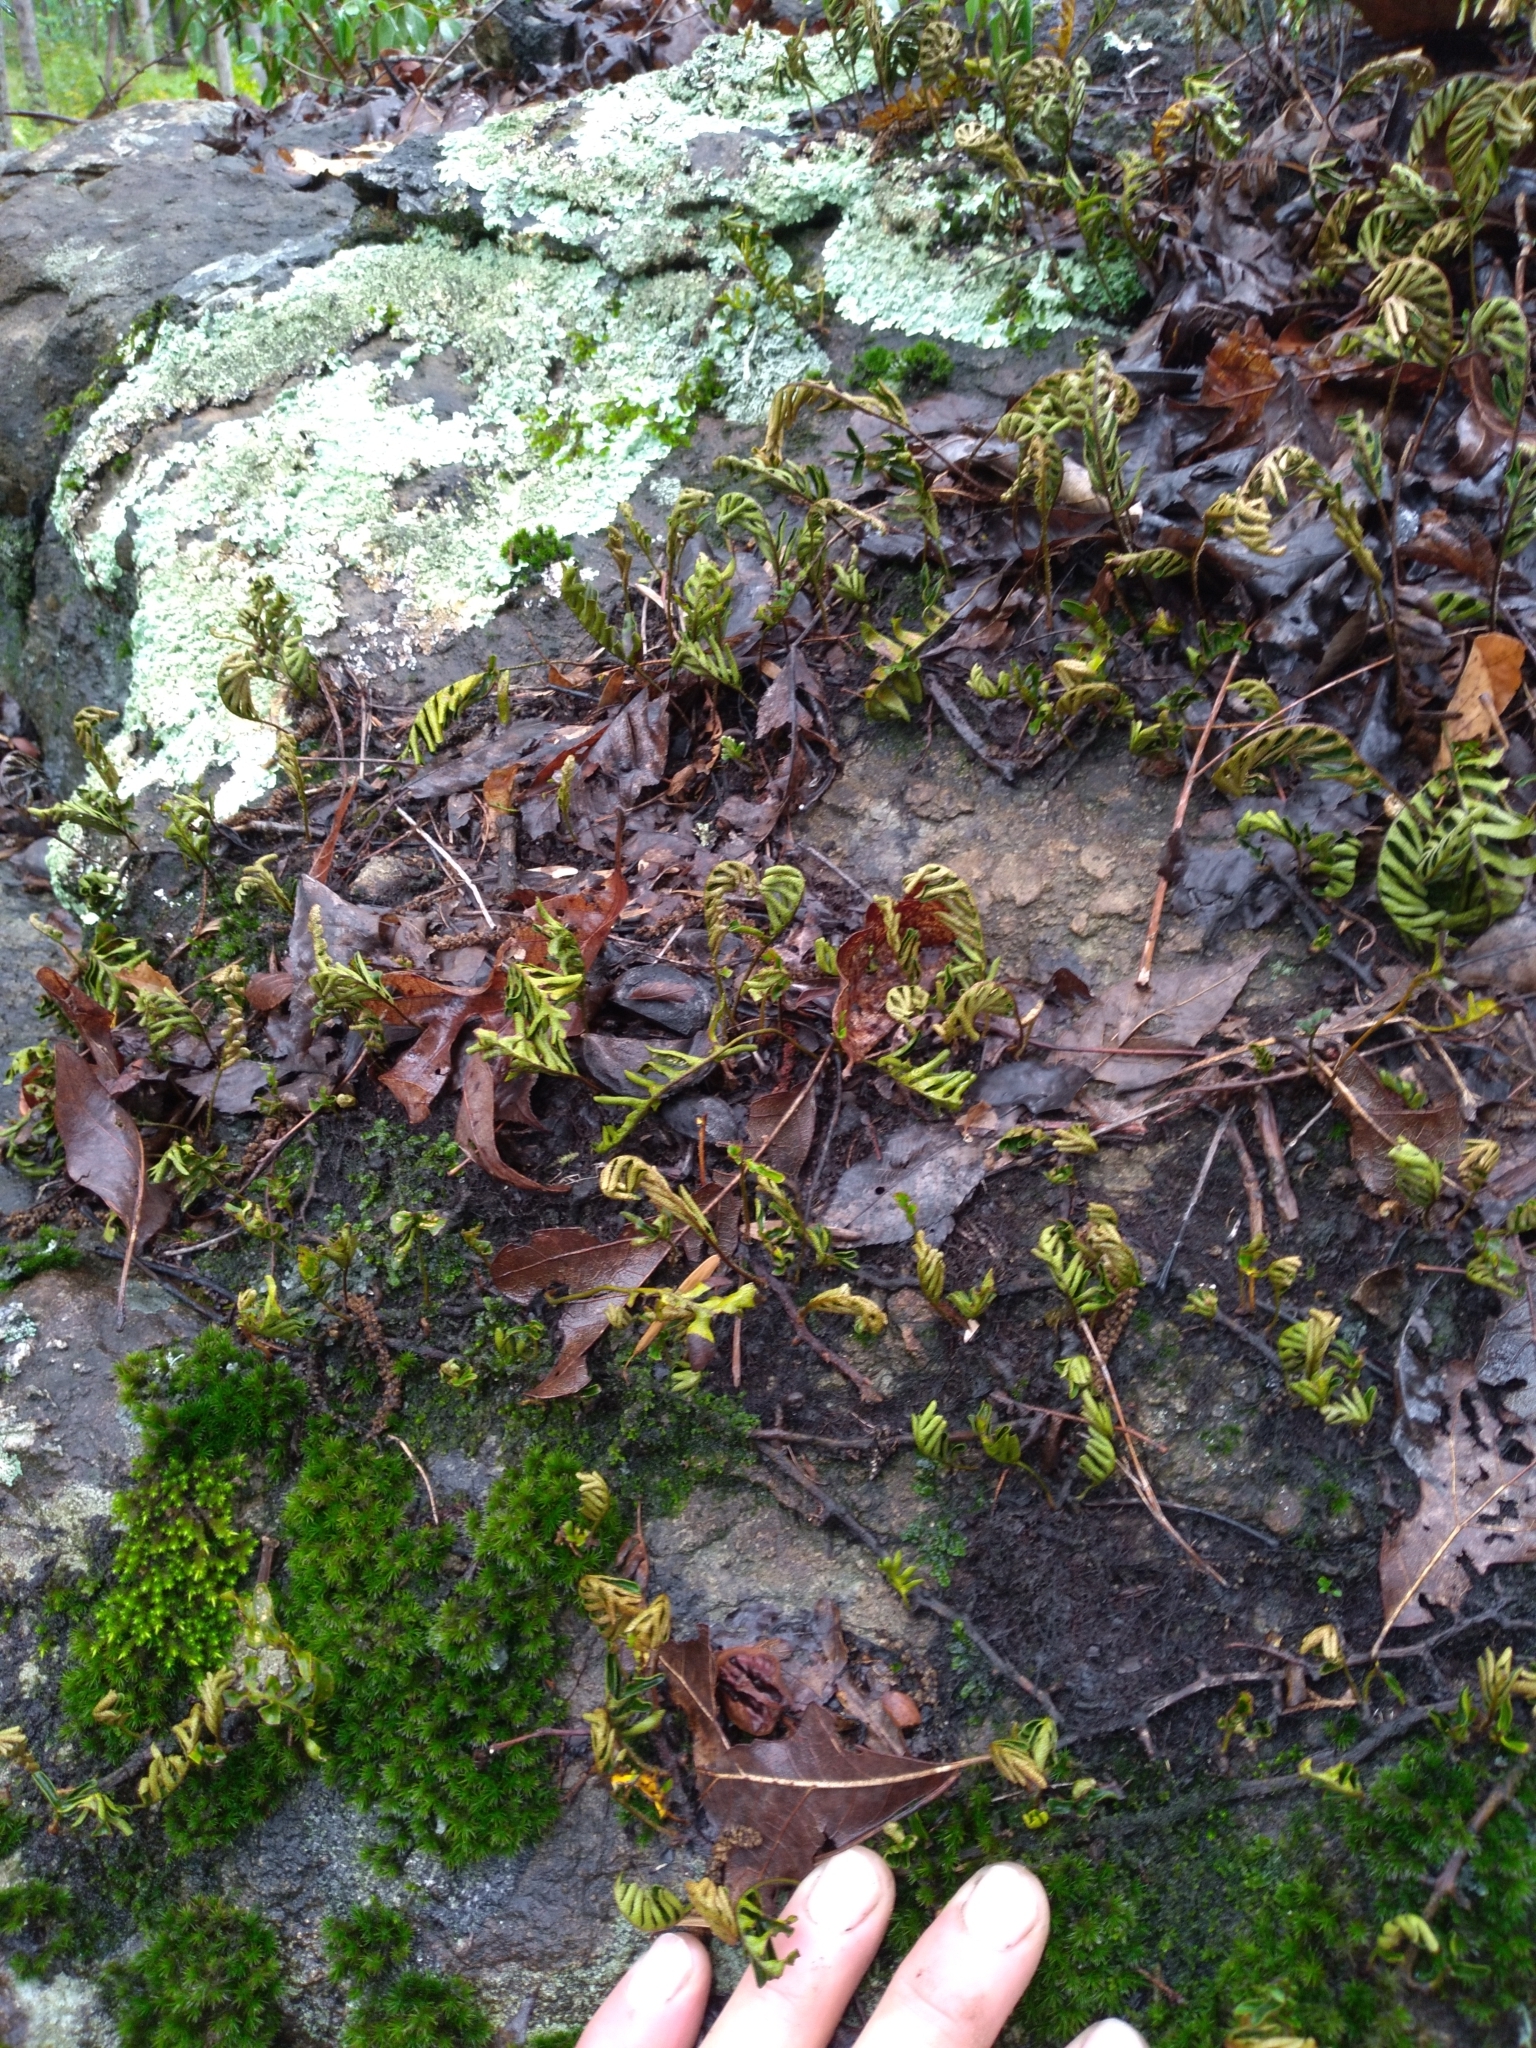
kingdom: Plantae
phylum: Tracheophyta
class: Polypodiopsida
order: Polypodiales
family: Polypodiaceae
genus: Pleopeltis
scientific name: Pleopeltis michauxiana
